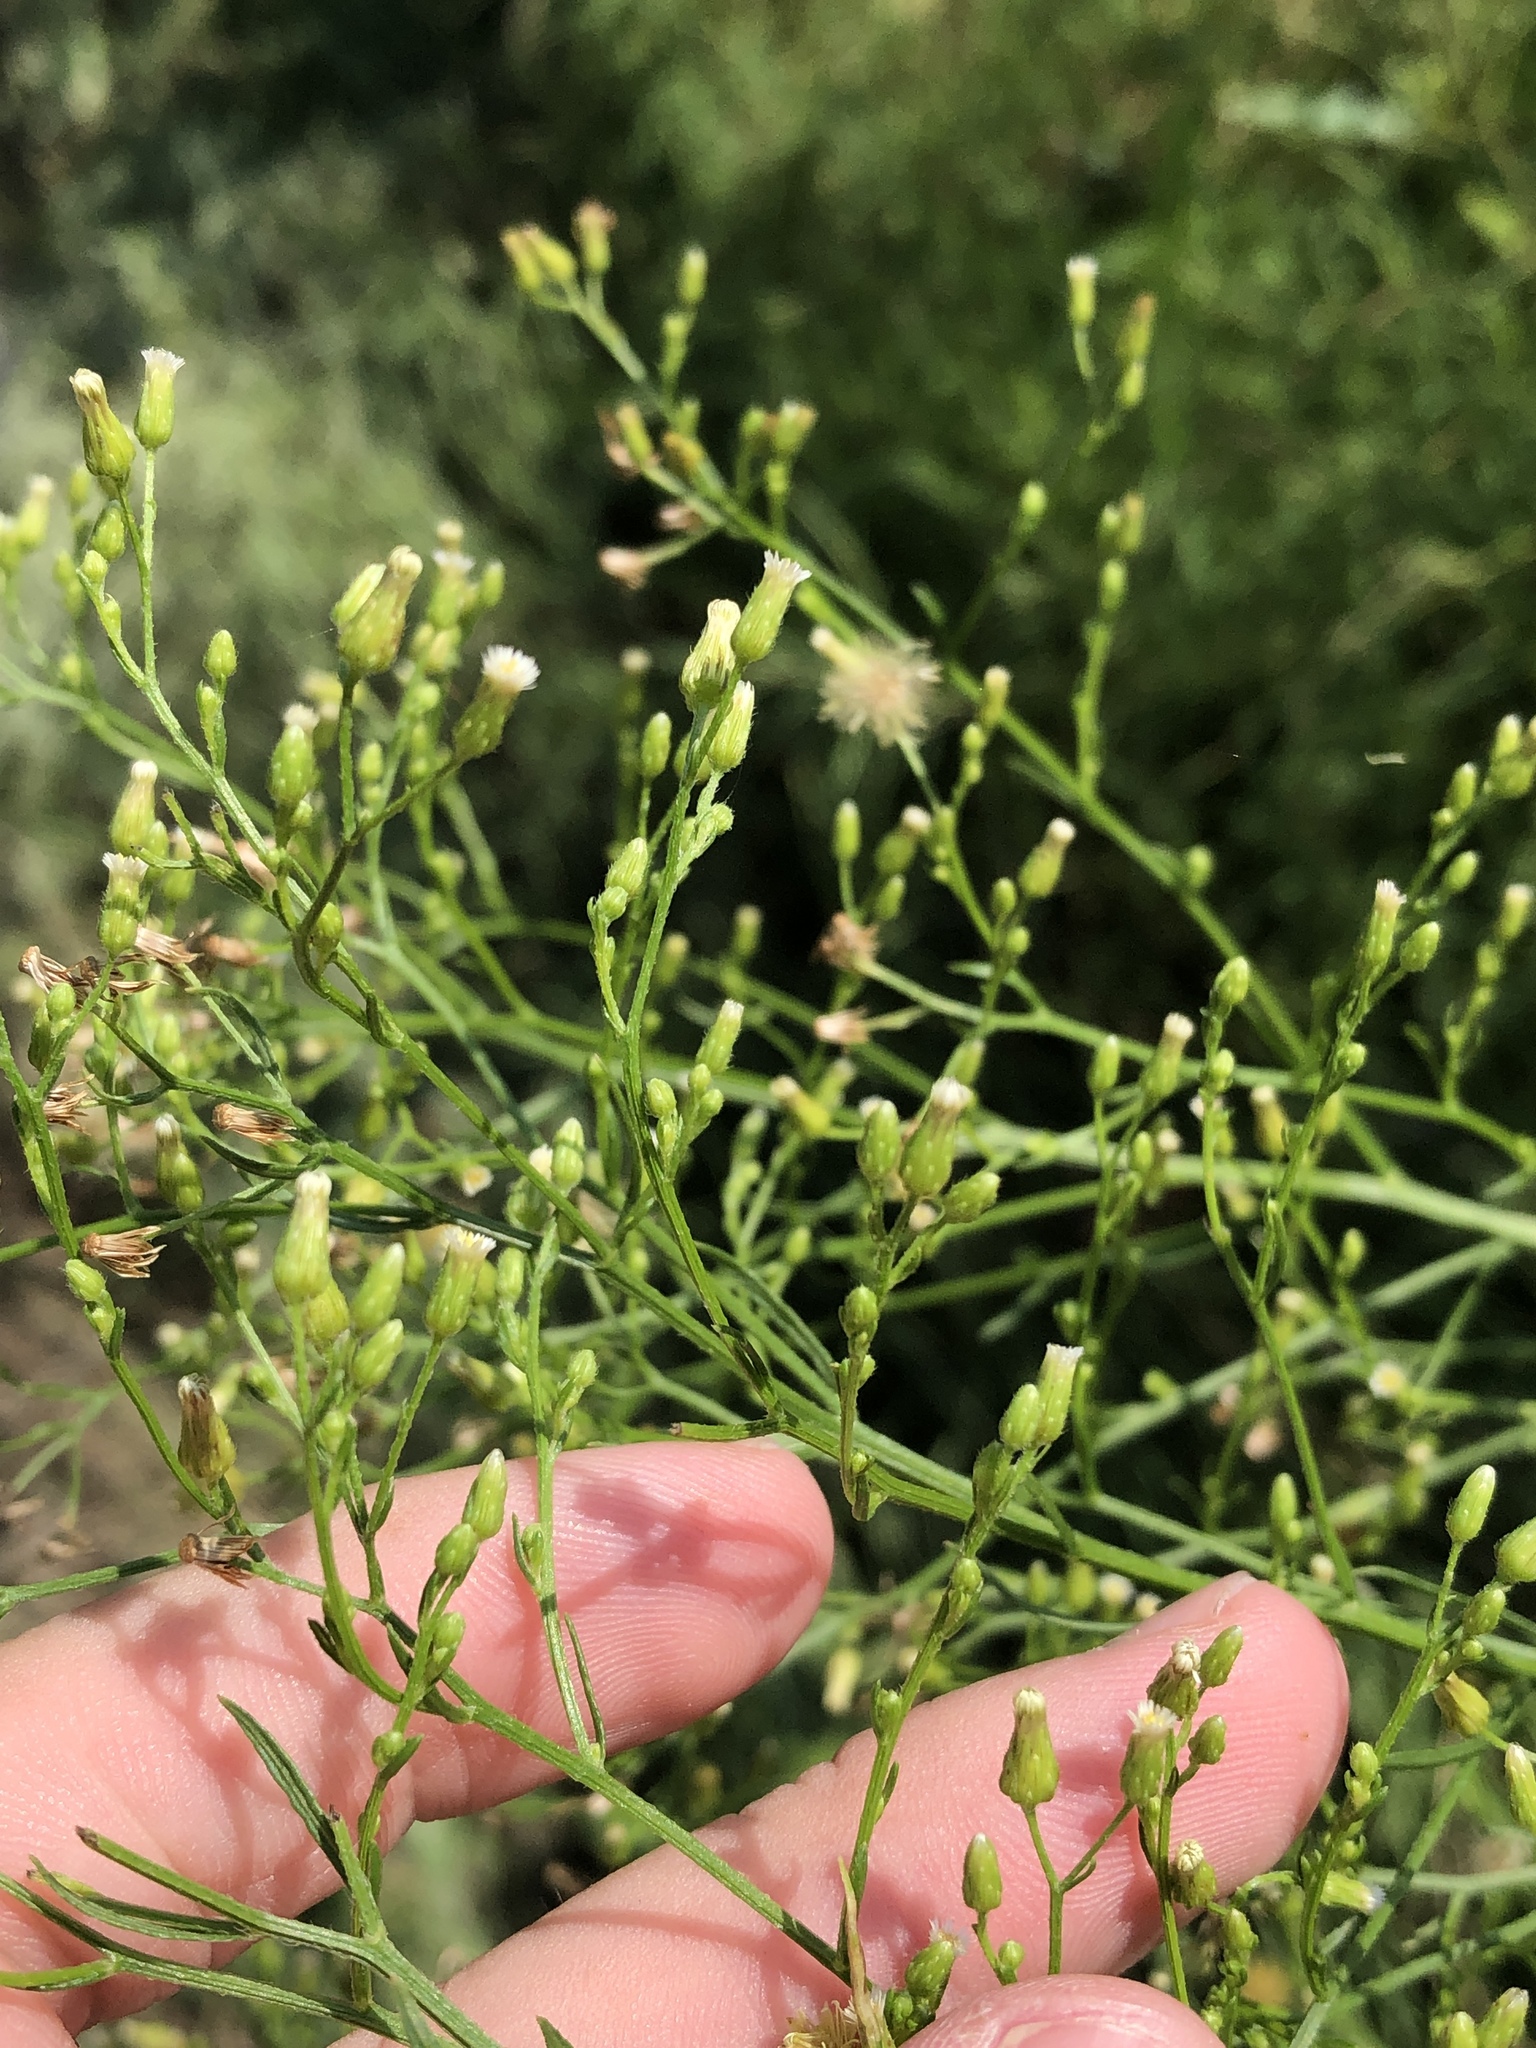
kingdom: Plantae
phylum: Tracheophyta
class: Magnoliopsida
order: Asterales
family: Asteraceae
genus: Erigeron
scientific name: Erigeron canadensis
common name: Canadian fleabane
